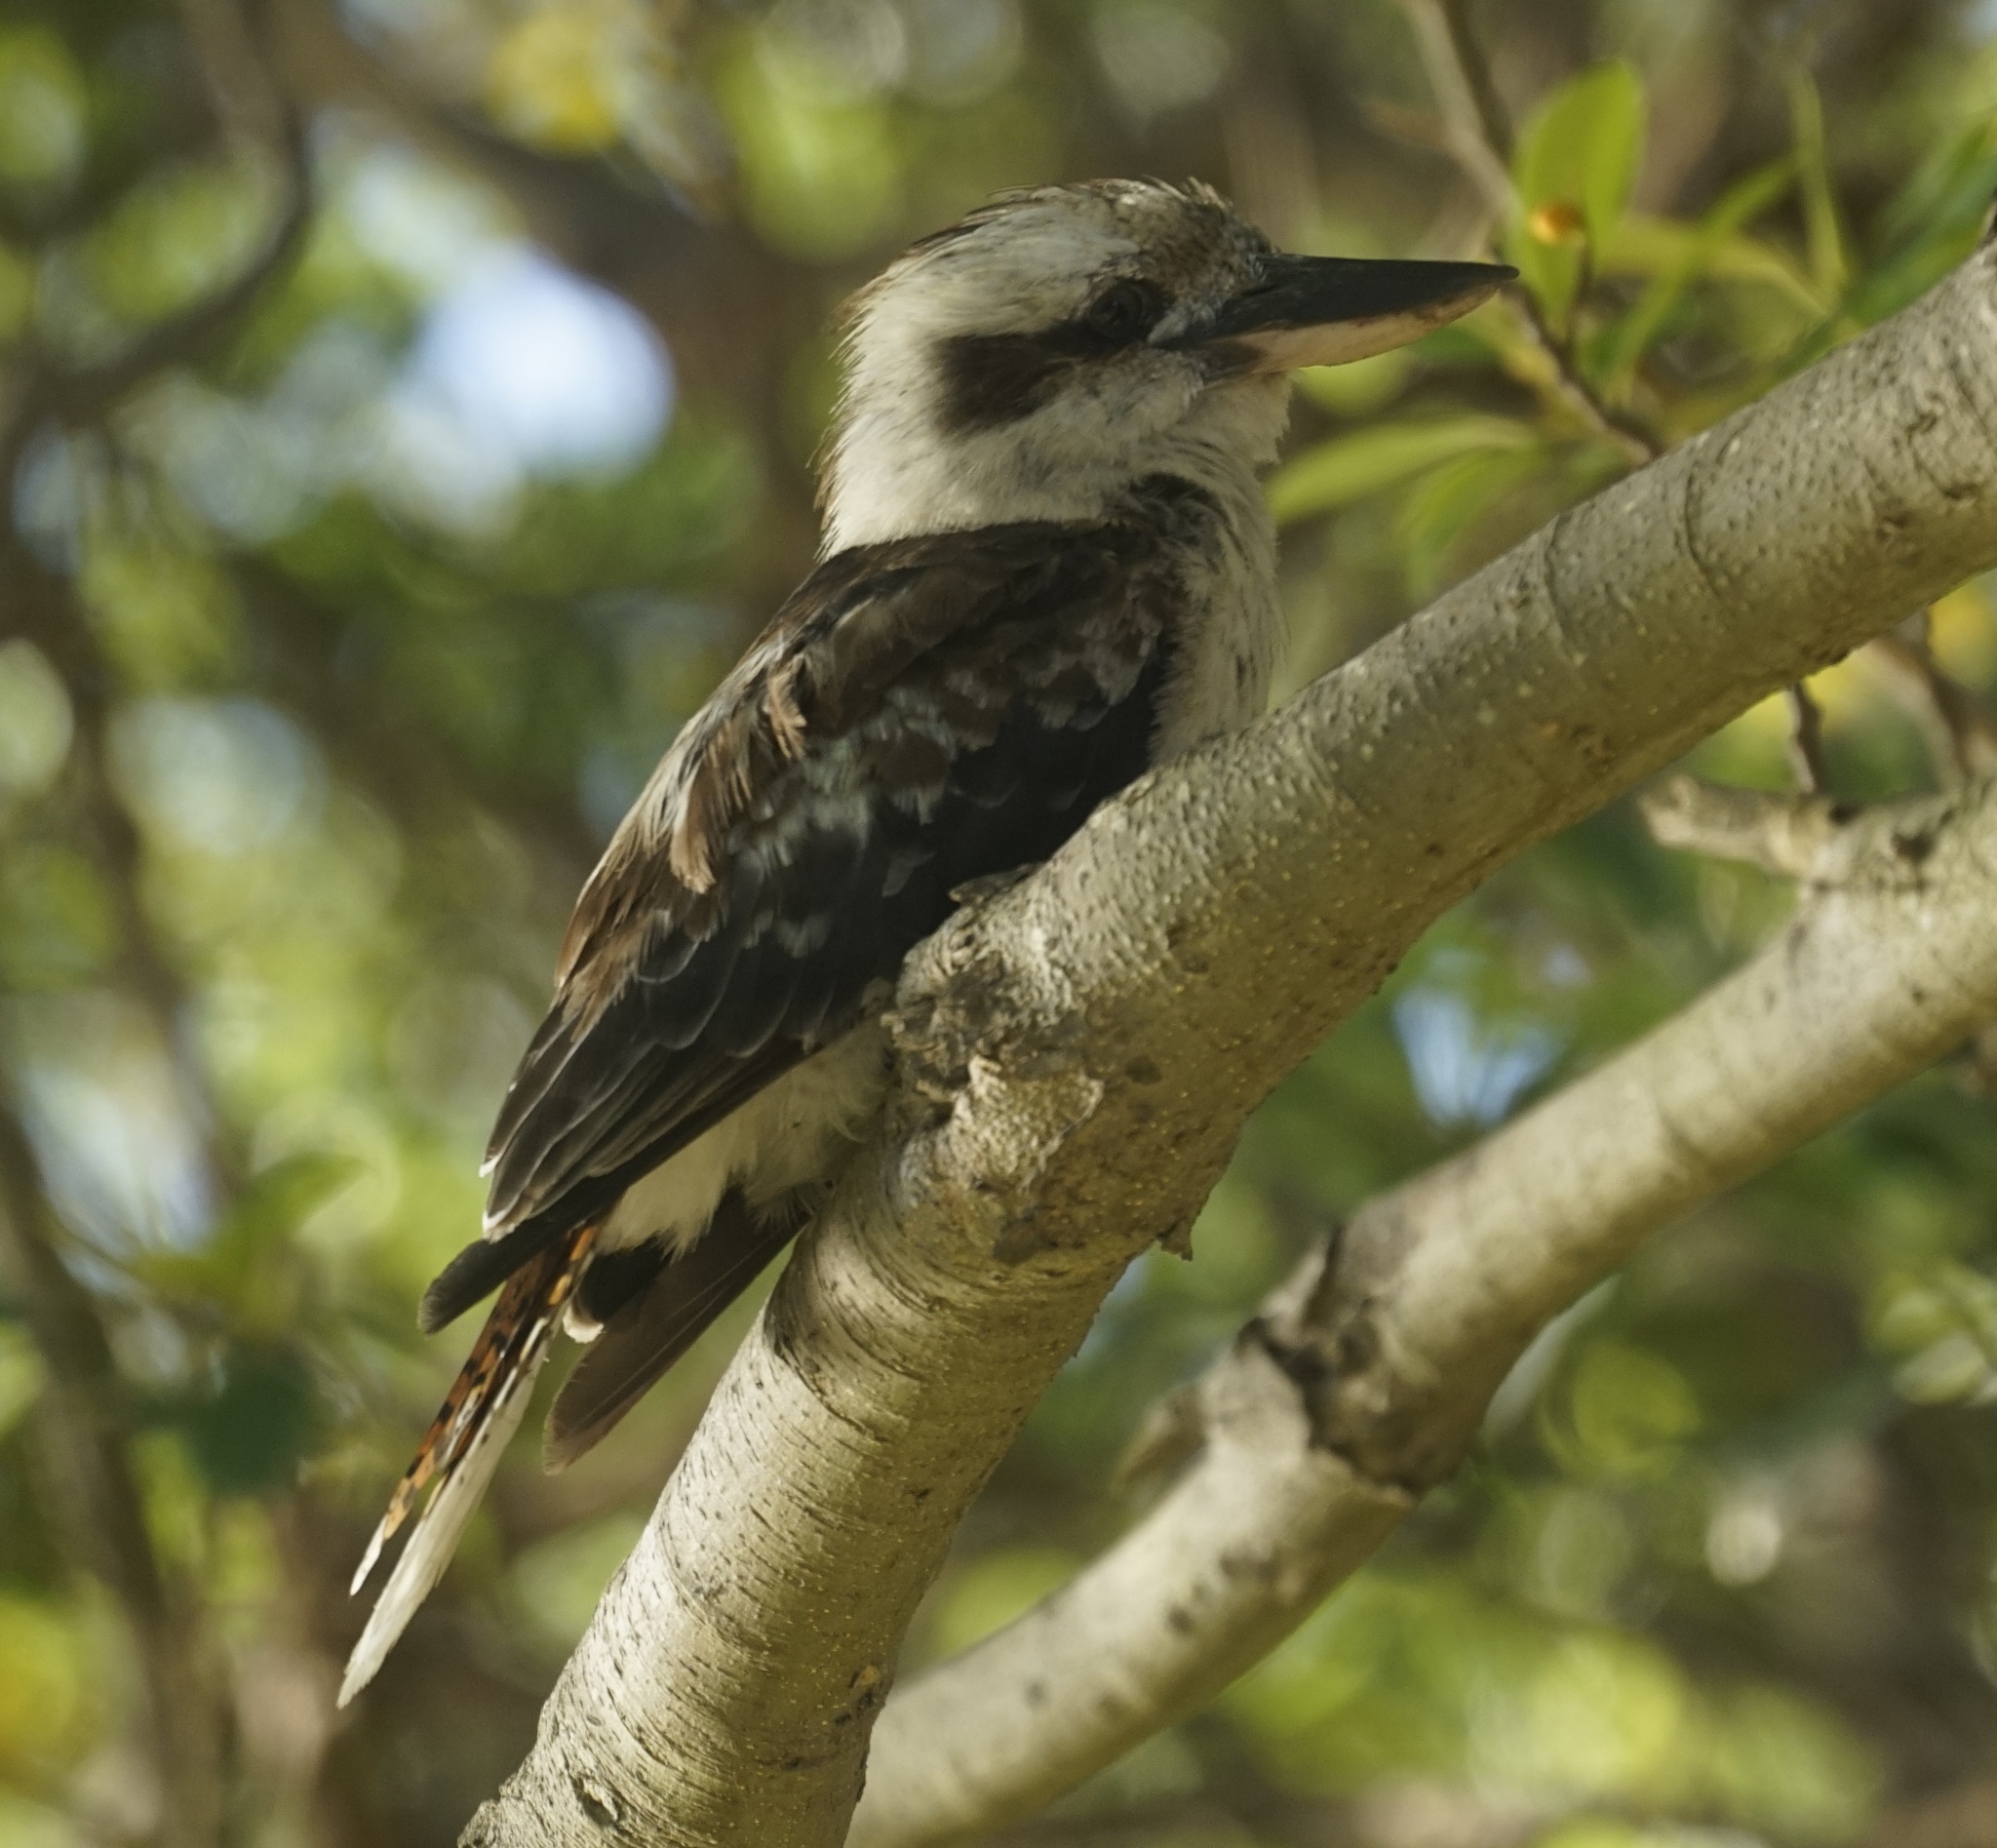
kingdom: Animalia
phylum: Chordata
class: Aves
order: Coraciiformes
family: Alcedinidae
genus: Dacelo
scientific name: Dacelo novaeguineae
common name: Laughing kookaburra
